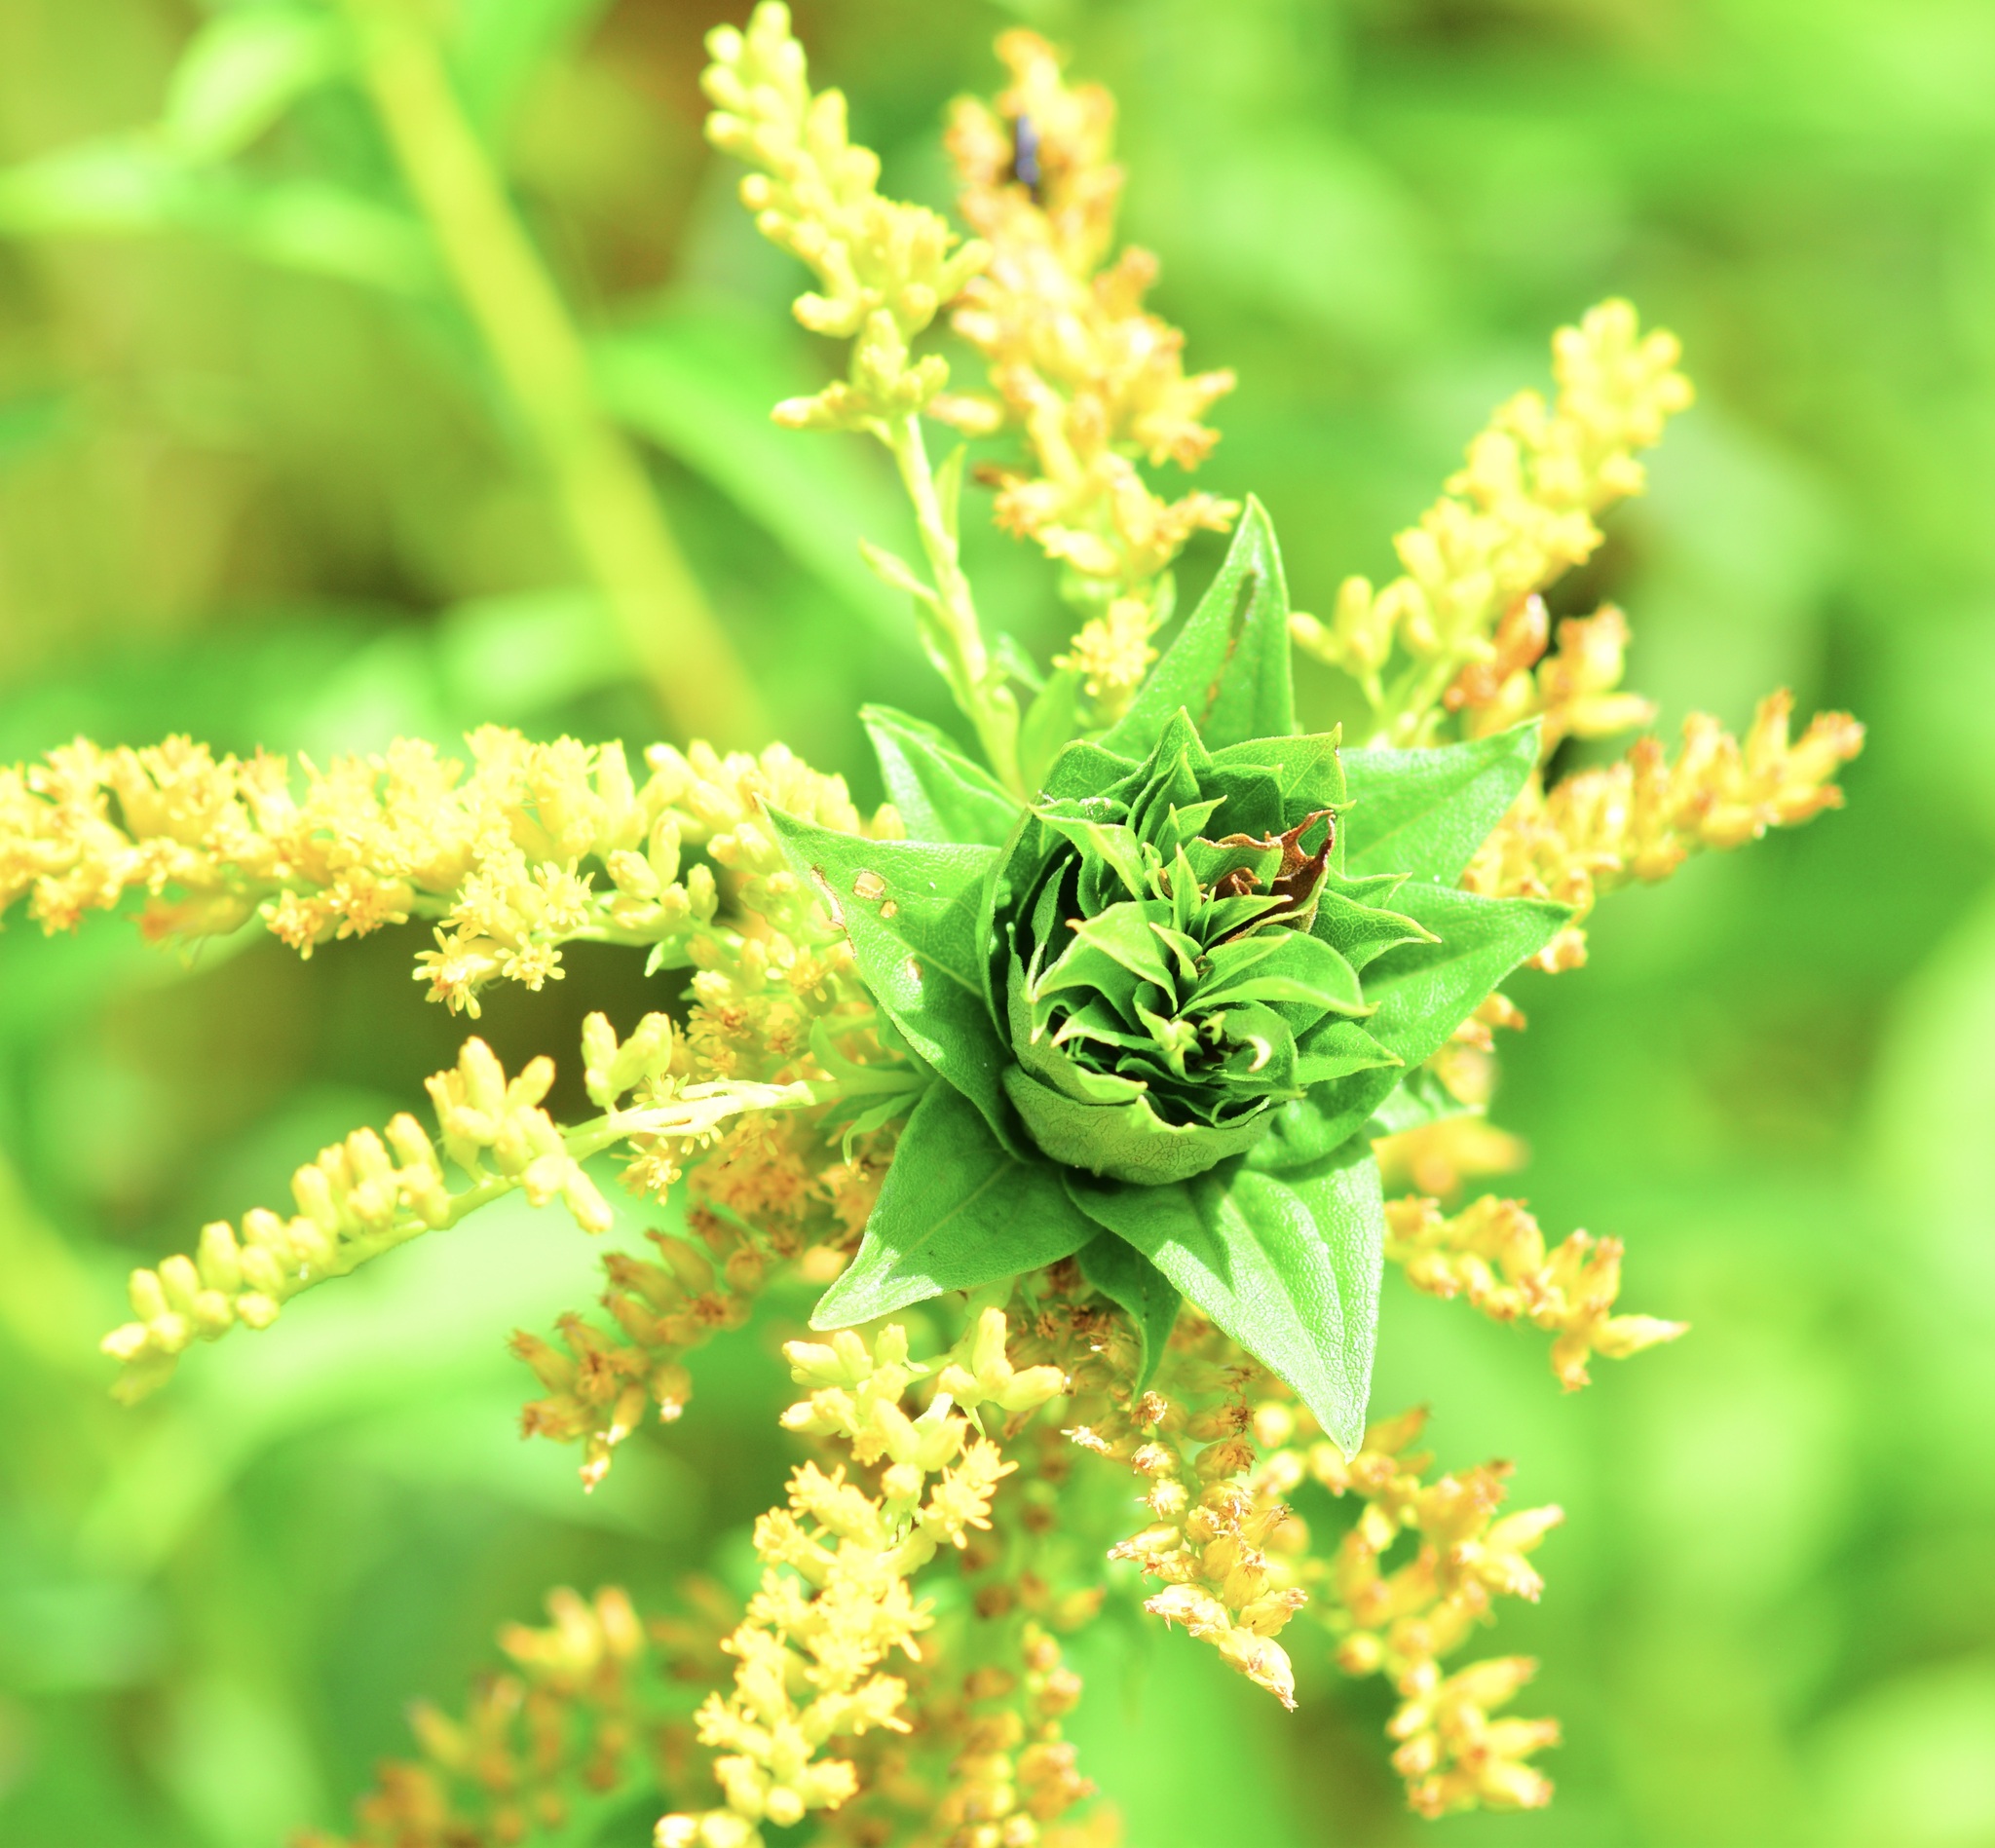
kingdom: Animalia
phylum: Arthropoda
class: Insecta
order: Diptera
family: Cecidomyiidae
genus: Rhopalomyia
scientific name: Rhopalomyia solidaginis
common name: Goldenrod bunch gall midge
